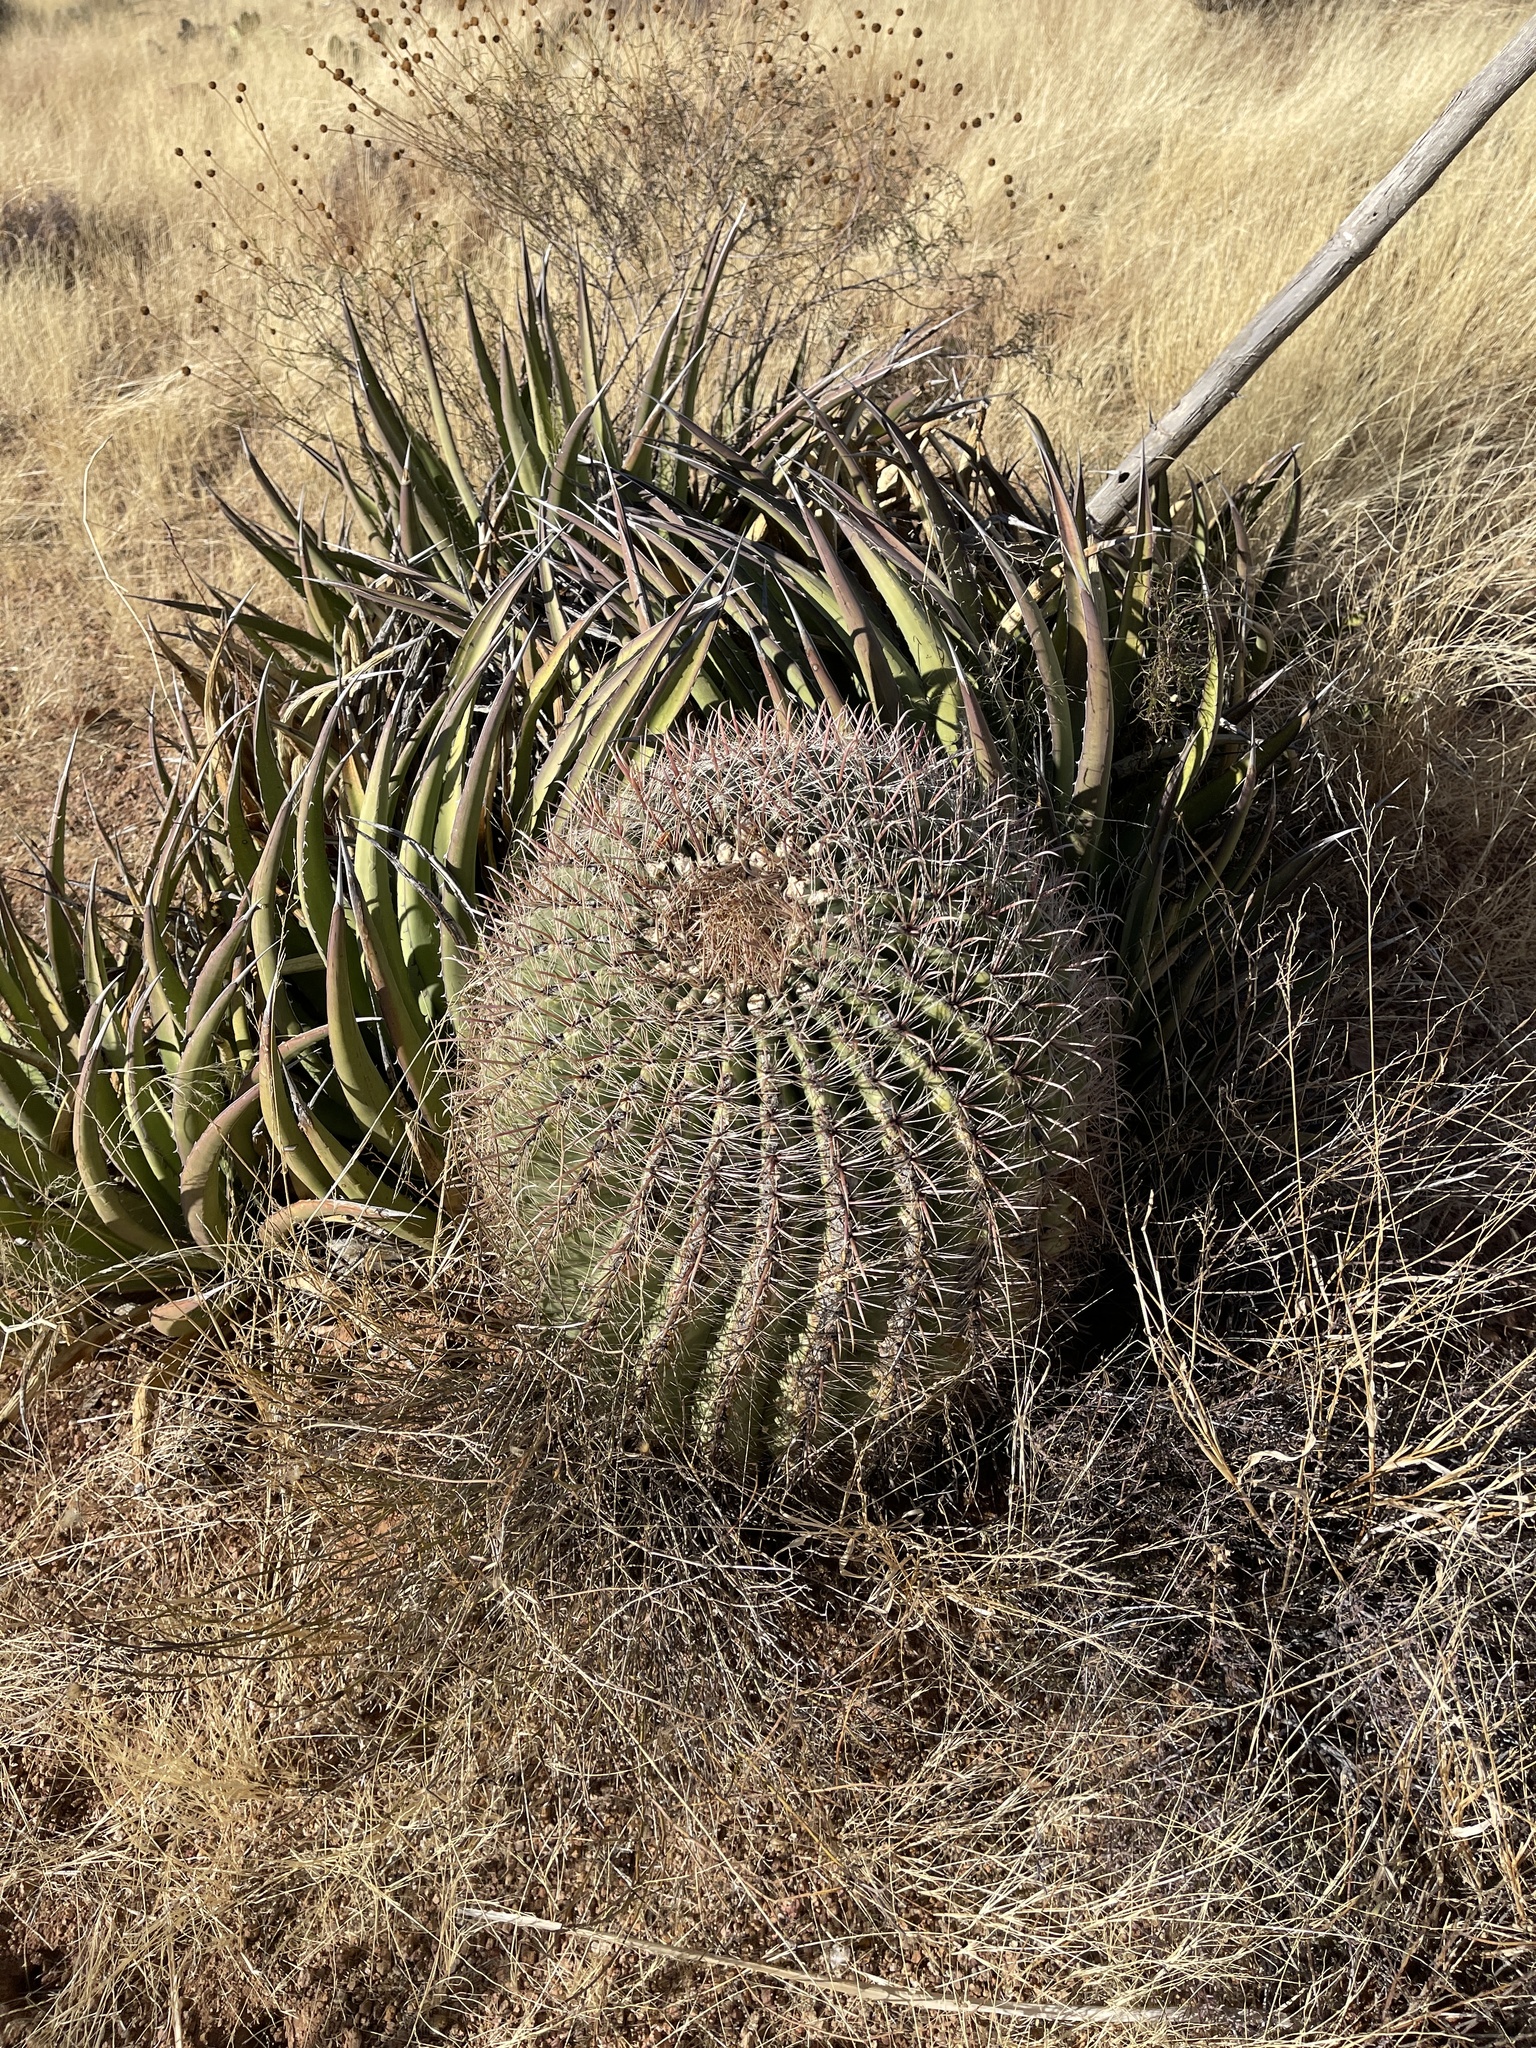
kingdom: Plantae
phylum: Tracheophyta
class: Magnoliopsida
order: Caryophyllales
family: Cactaceae
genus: Ferocactus
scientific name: Ferocactus wislizeni
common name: Candy barrel cactus
